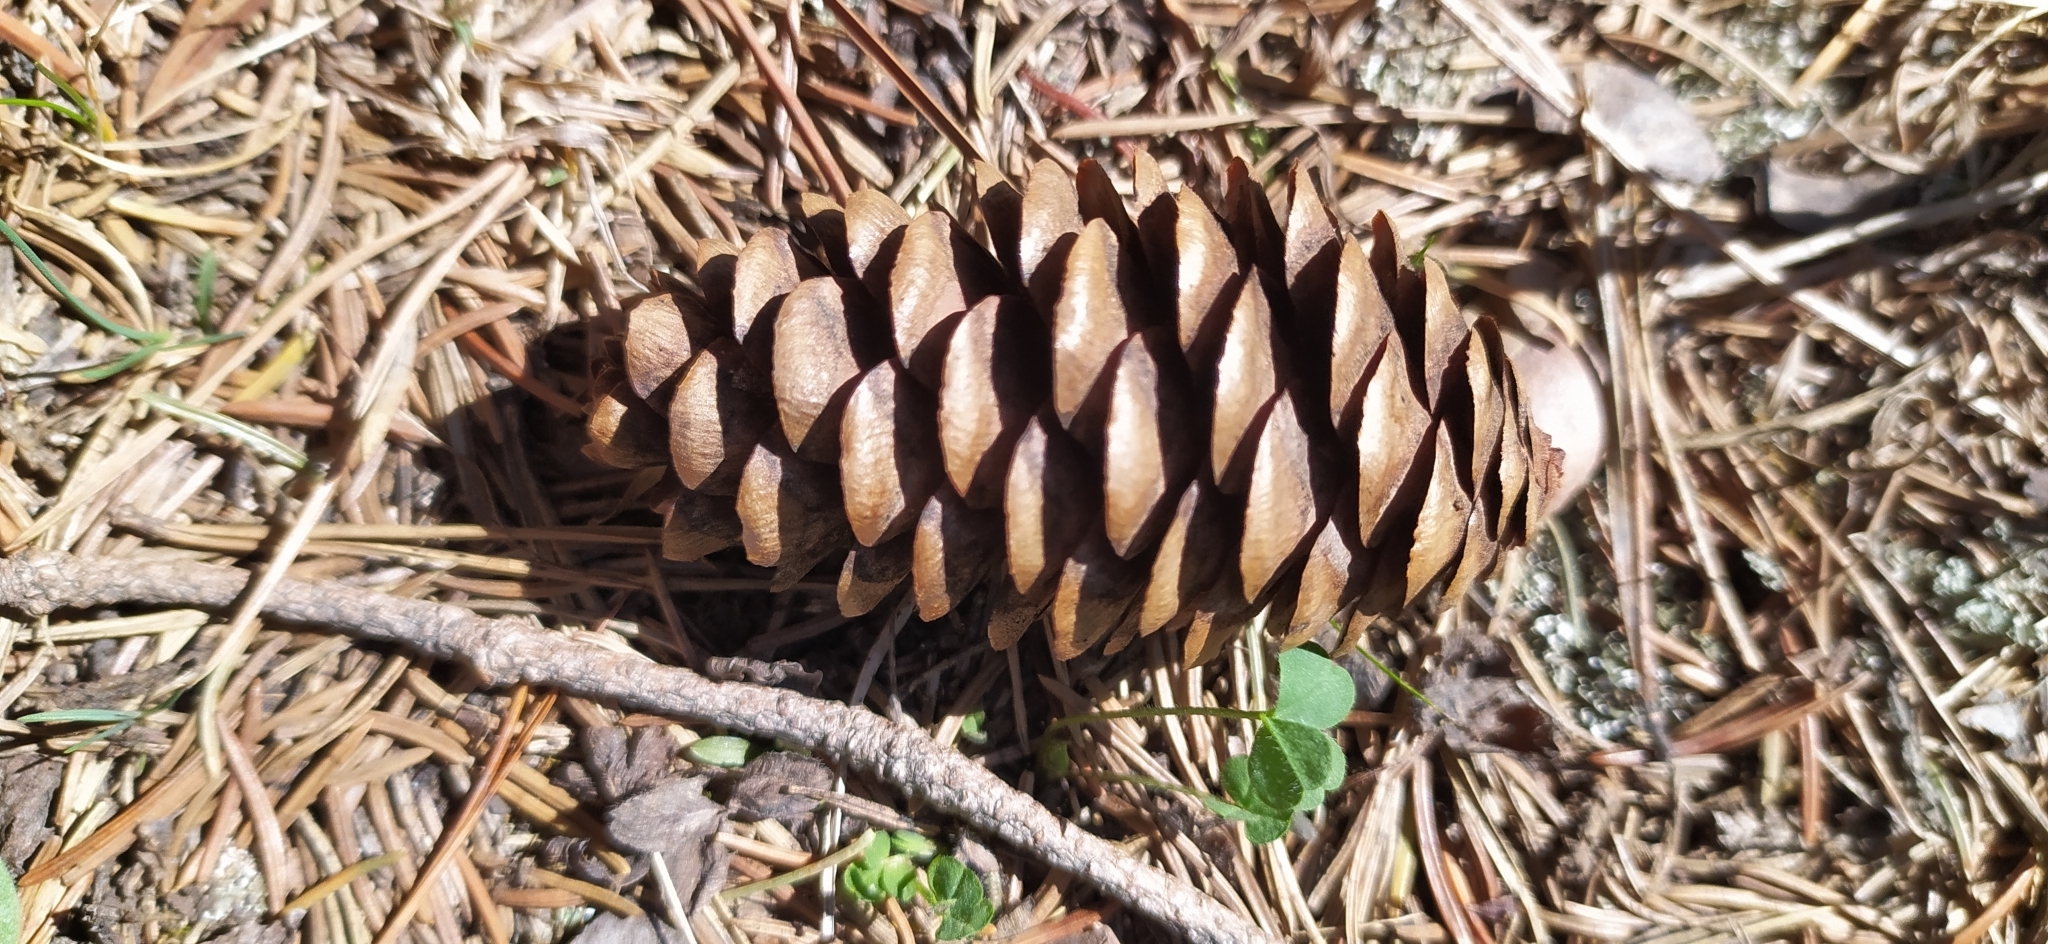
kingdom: Plantae
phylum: Tracheophyta
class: Pinopsida
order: Pinales
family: Pinaceae
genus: Picea
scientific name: Picea obovata
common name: Siberian spruce
